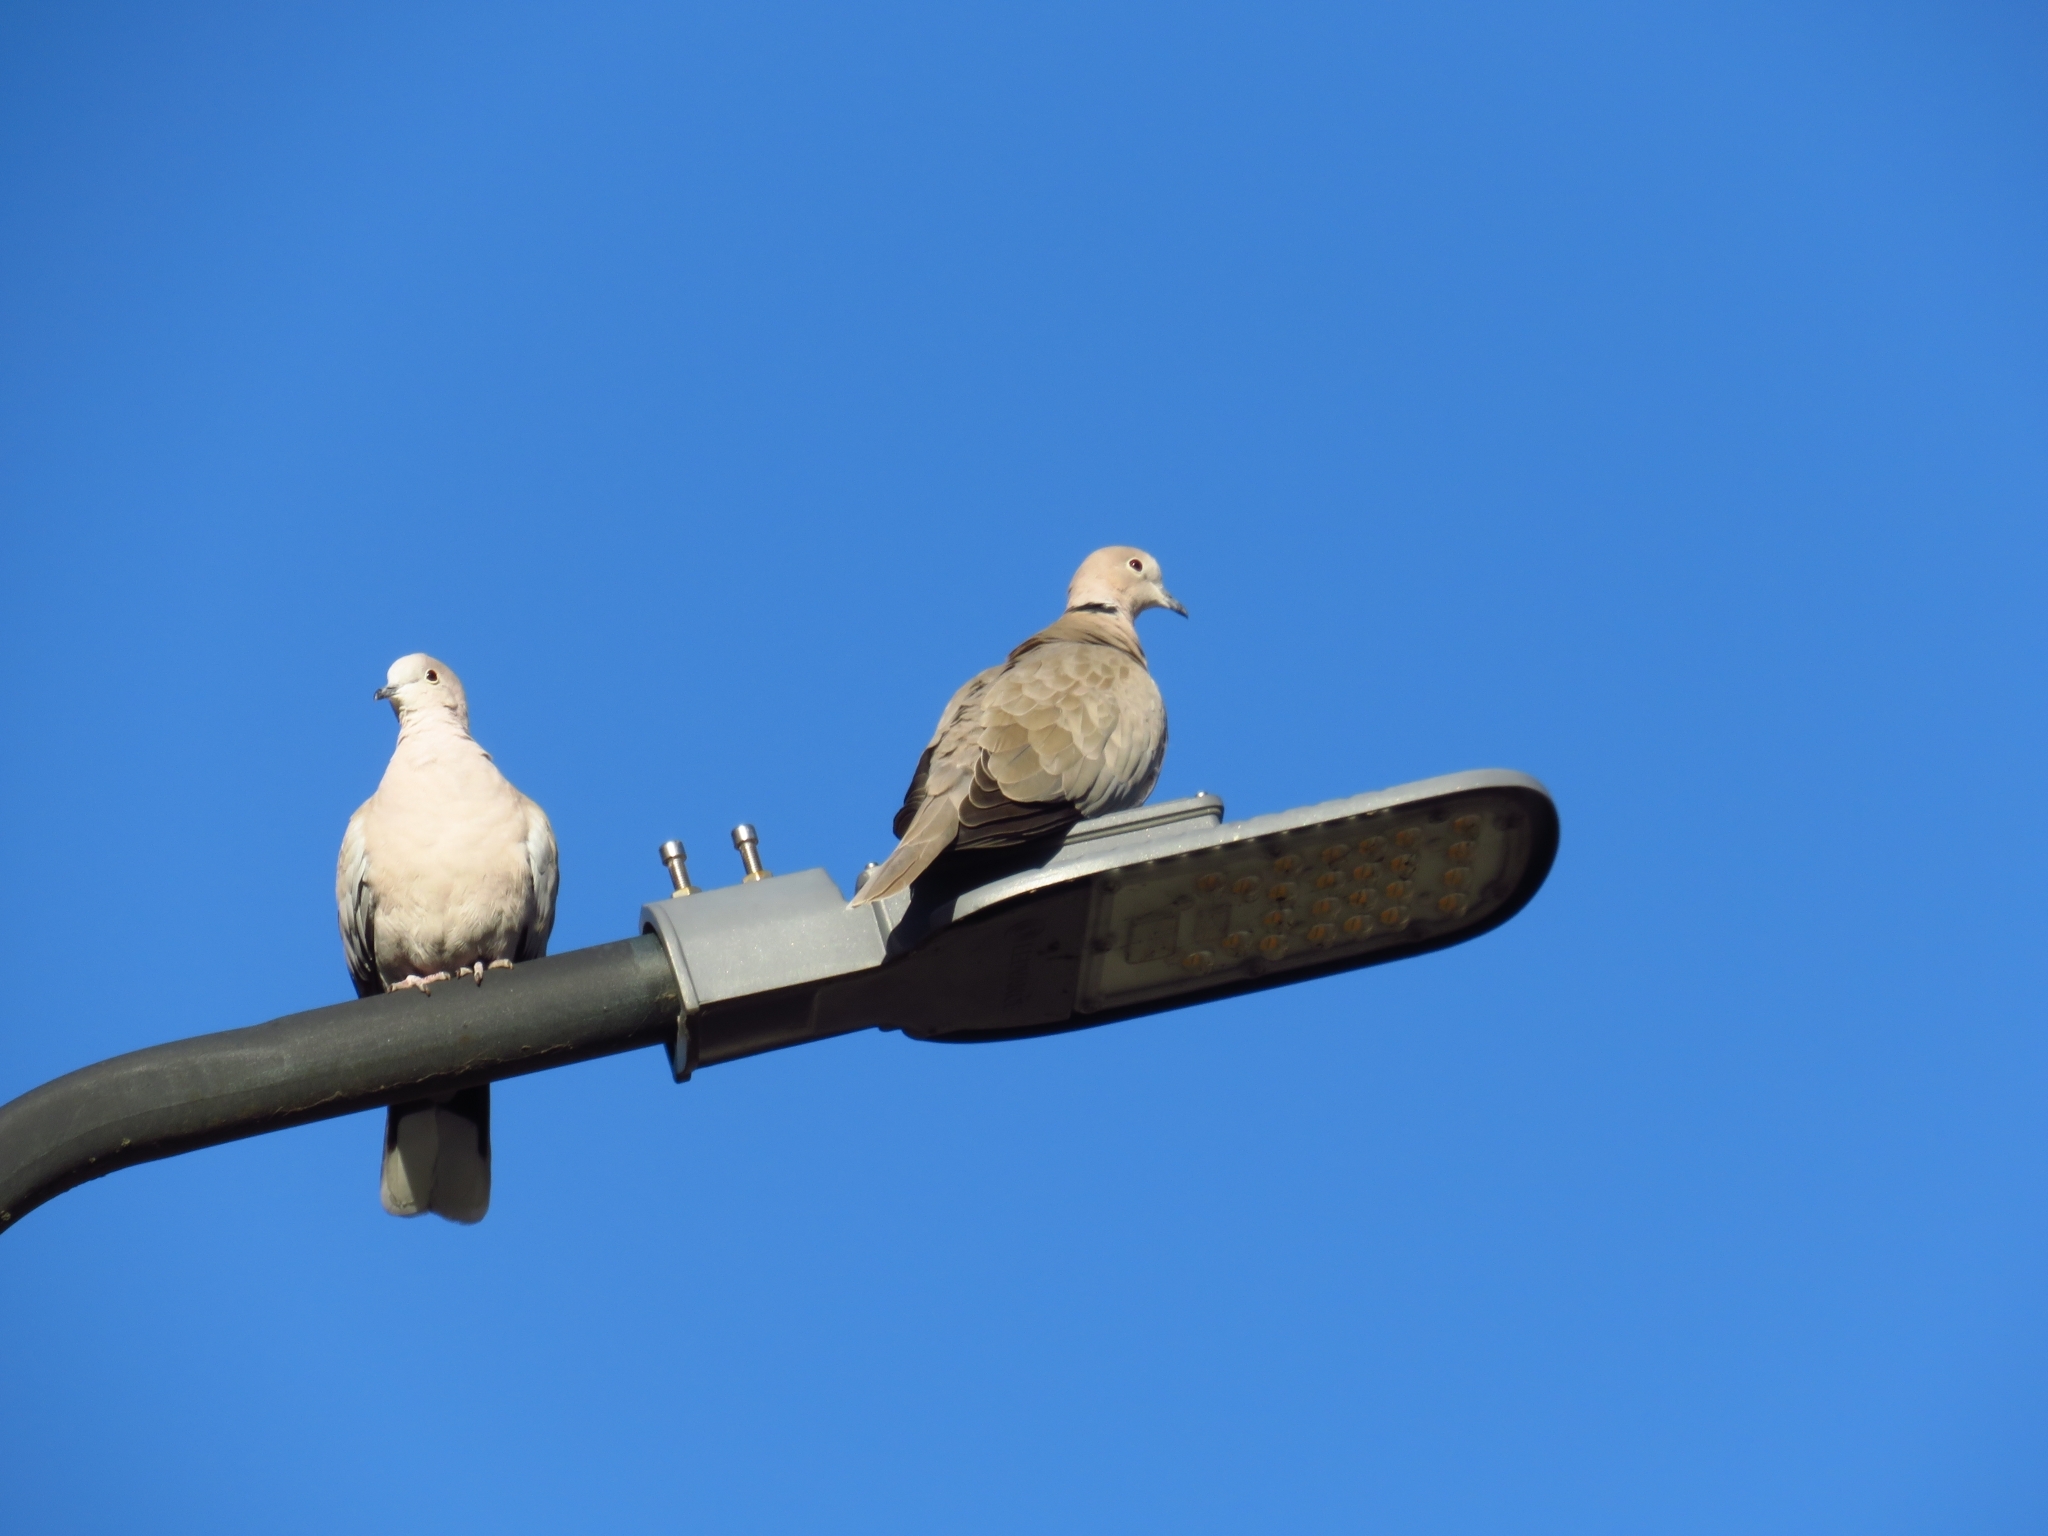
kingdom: Animalia
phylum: Chordata
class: Aves
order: Columbiformes
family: Columbidae
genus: Streptopelia
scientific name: Streptopelia decaocto
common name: Eurasian collared dove
